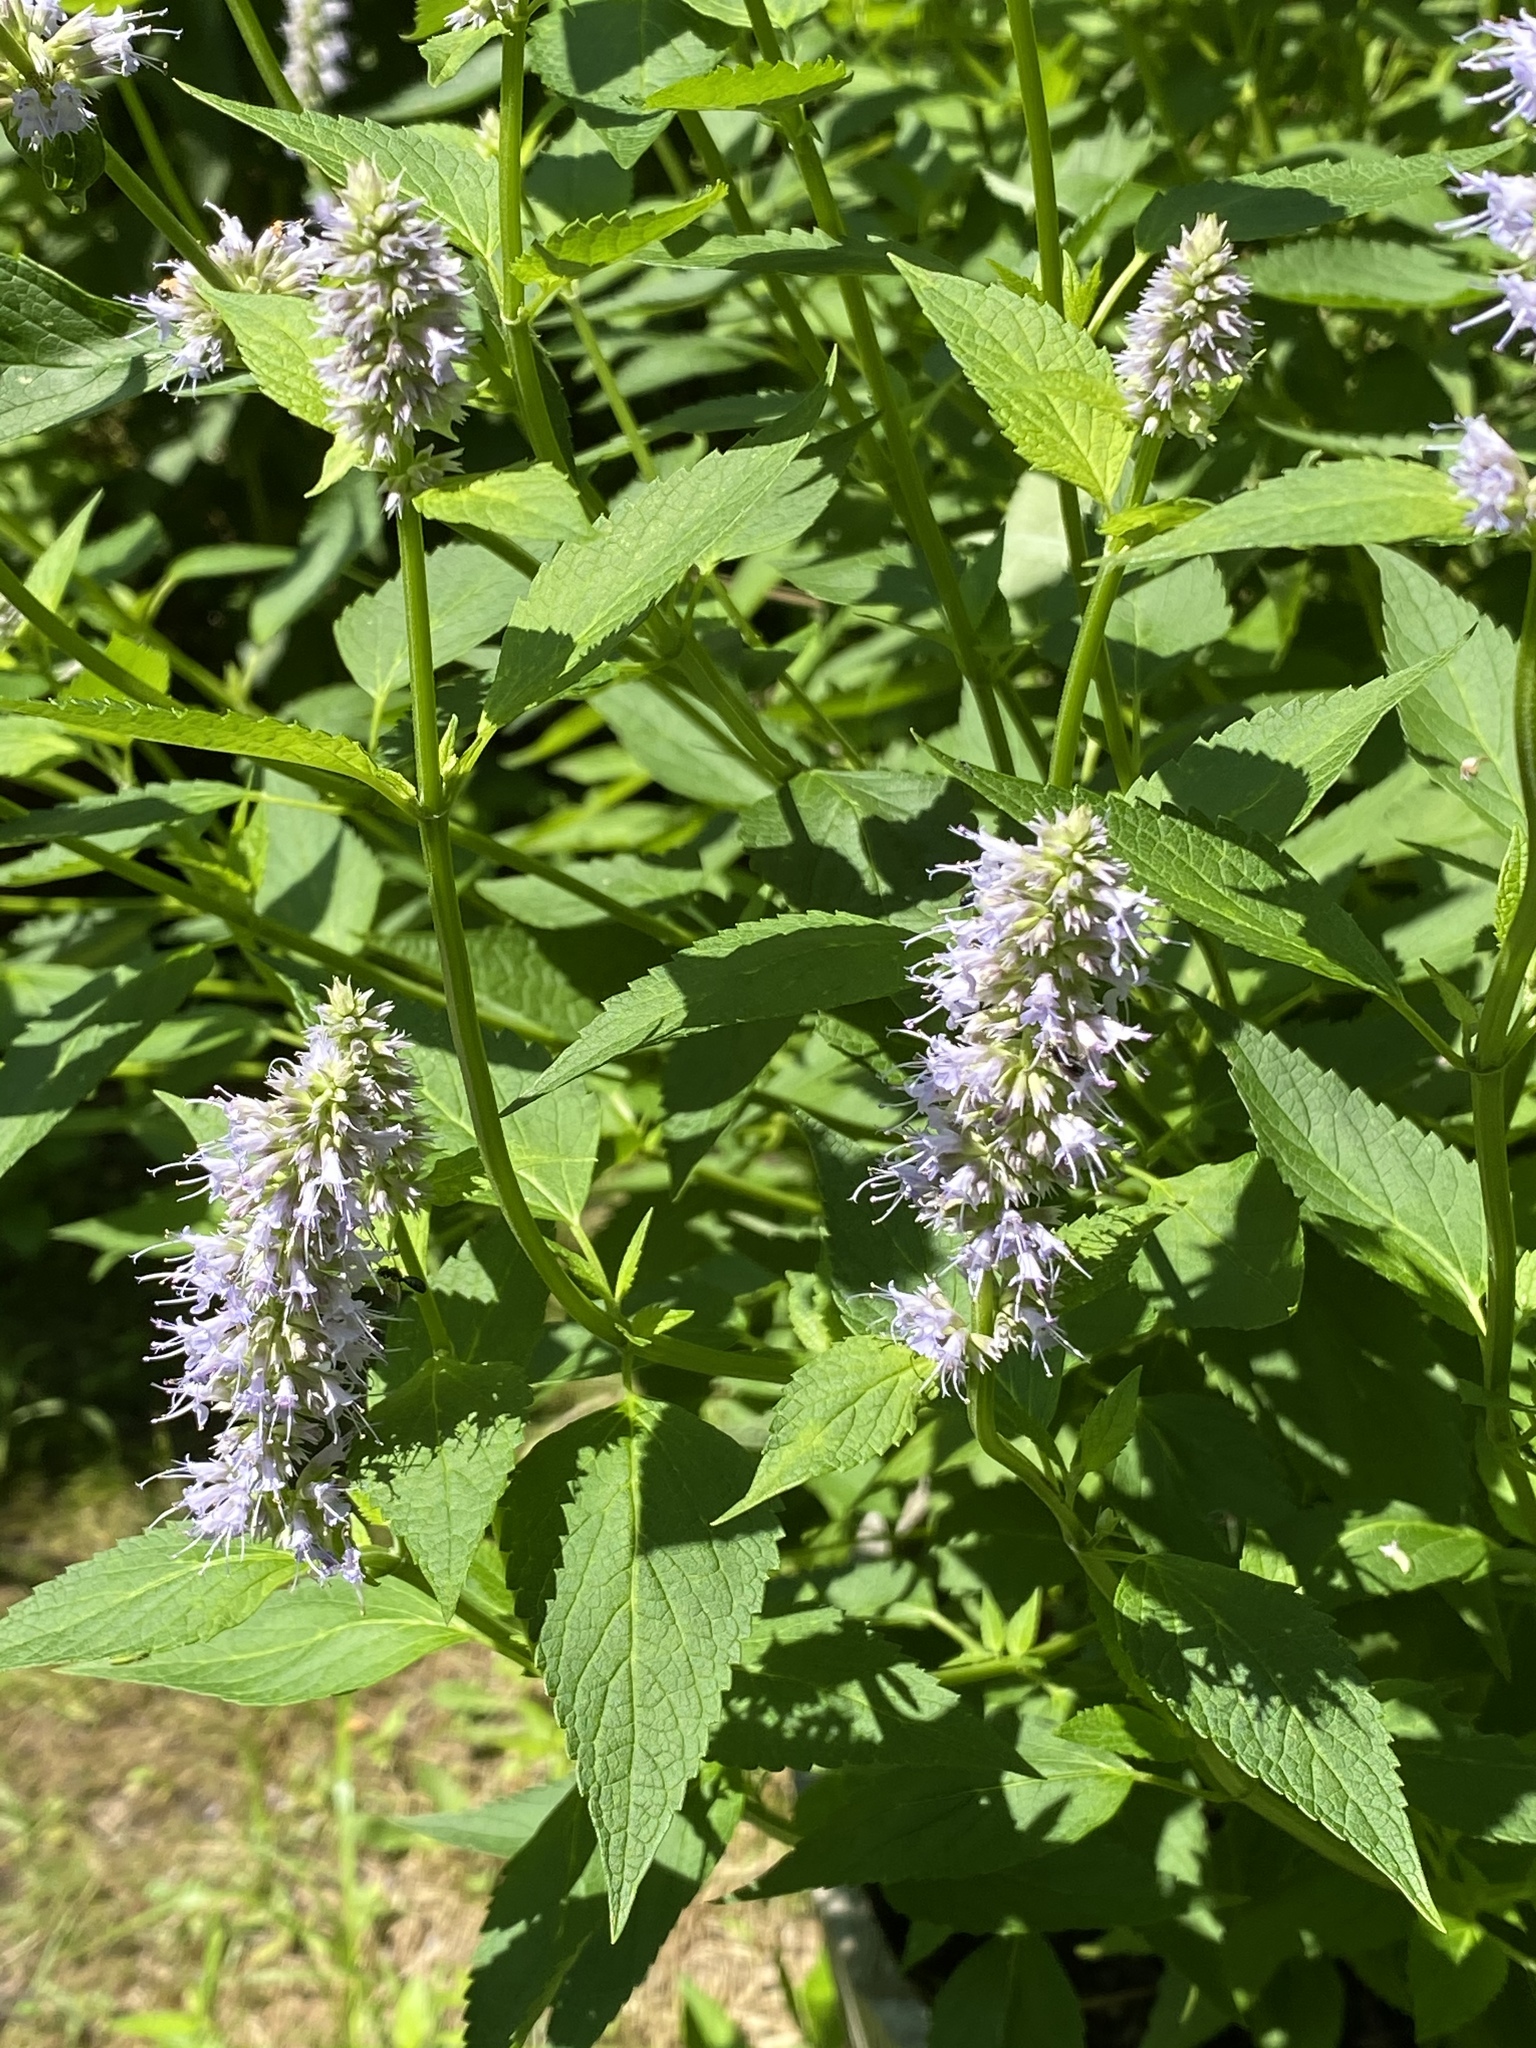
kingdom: Plantae
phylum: Tracheophyta
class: Magnoliopsida
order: Lamiales
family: Lamiaceae
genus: Agastache
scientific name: Agastache foeniculum
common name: Anise hyssop
